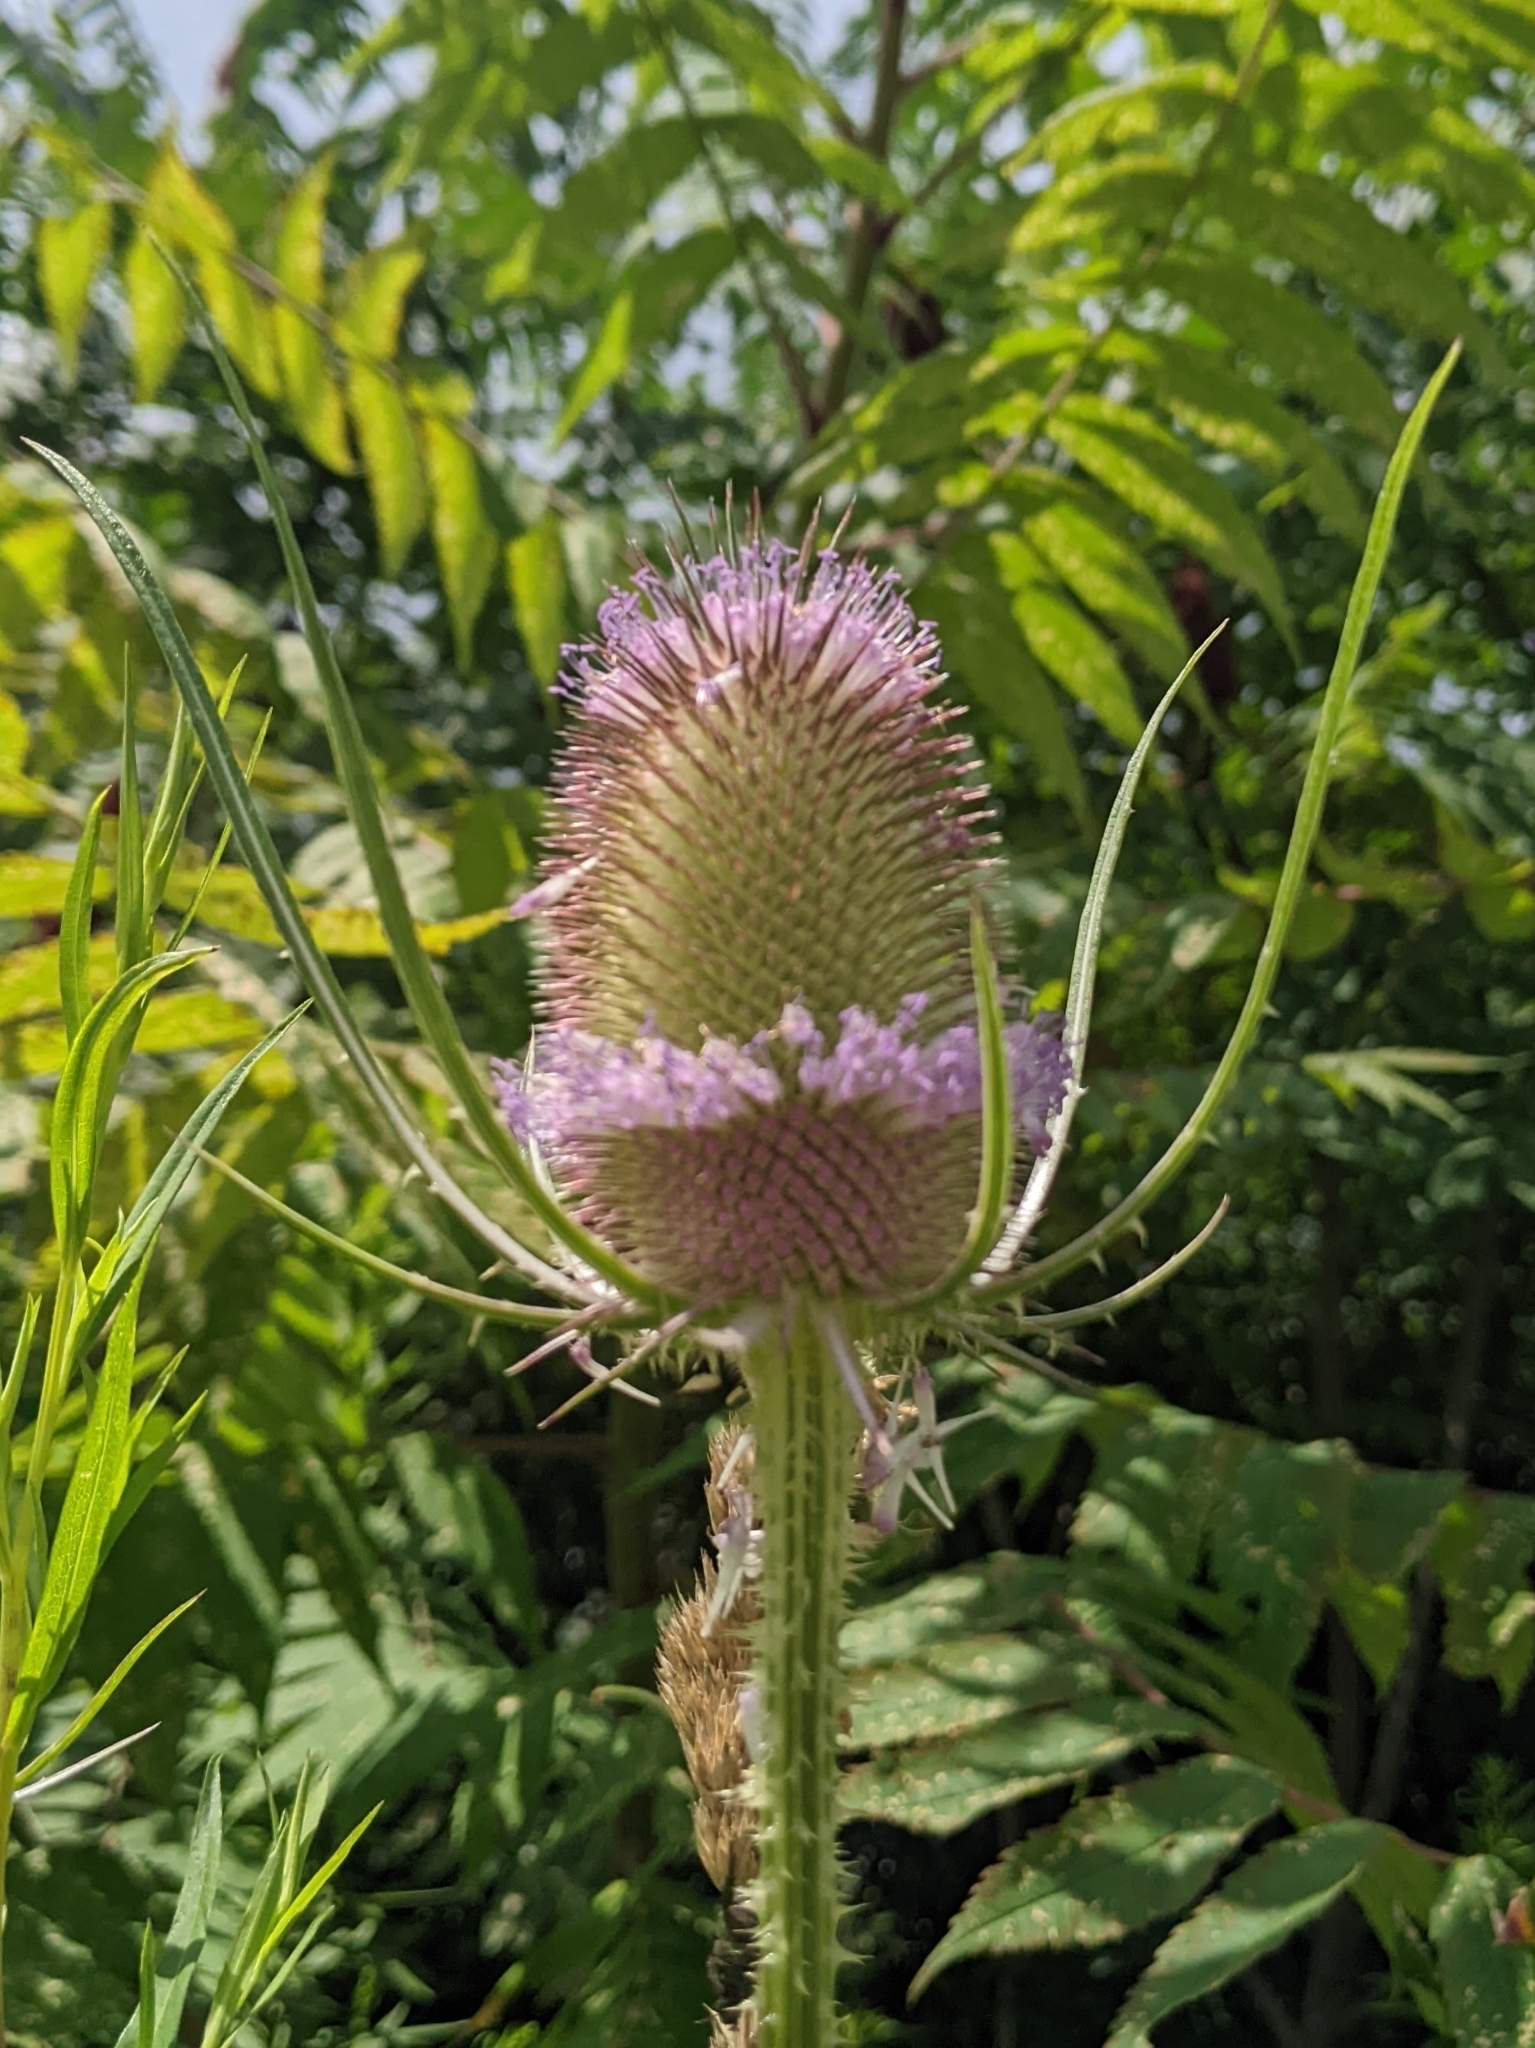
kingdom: Plantae
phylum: Tracheophyta
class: Magnoliopsida
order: Dipsacales
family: Caprifoliaceae
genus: Dipsacus
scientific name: Dipsacus fullonum
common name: Teasel
